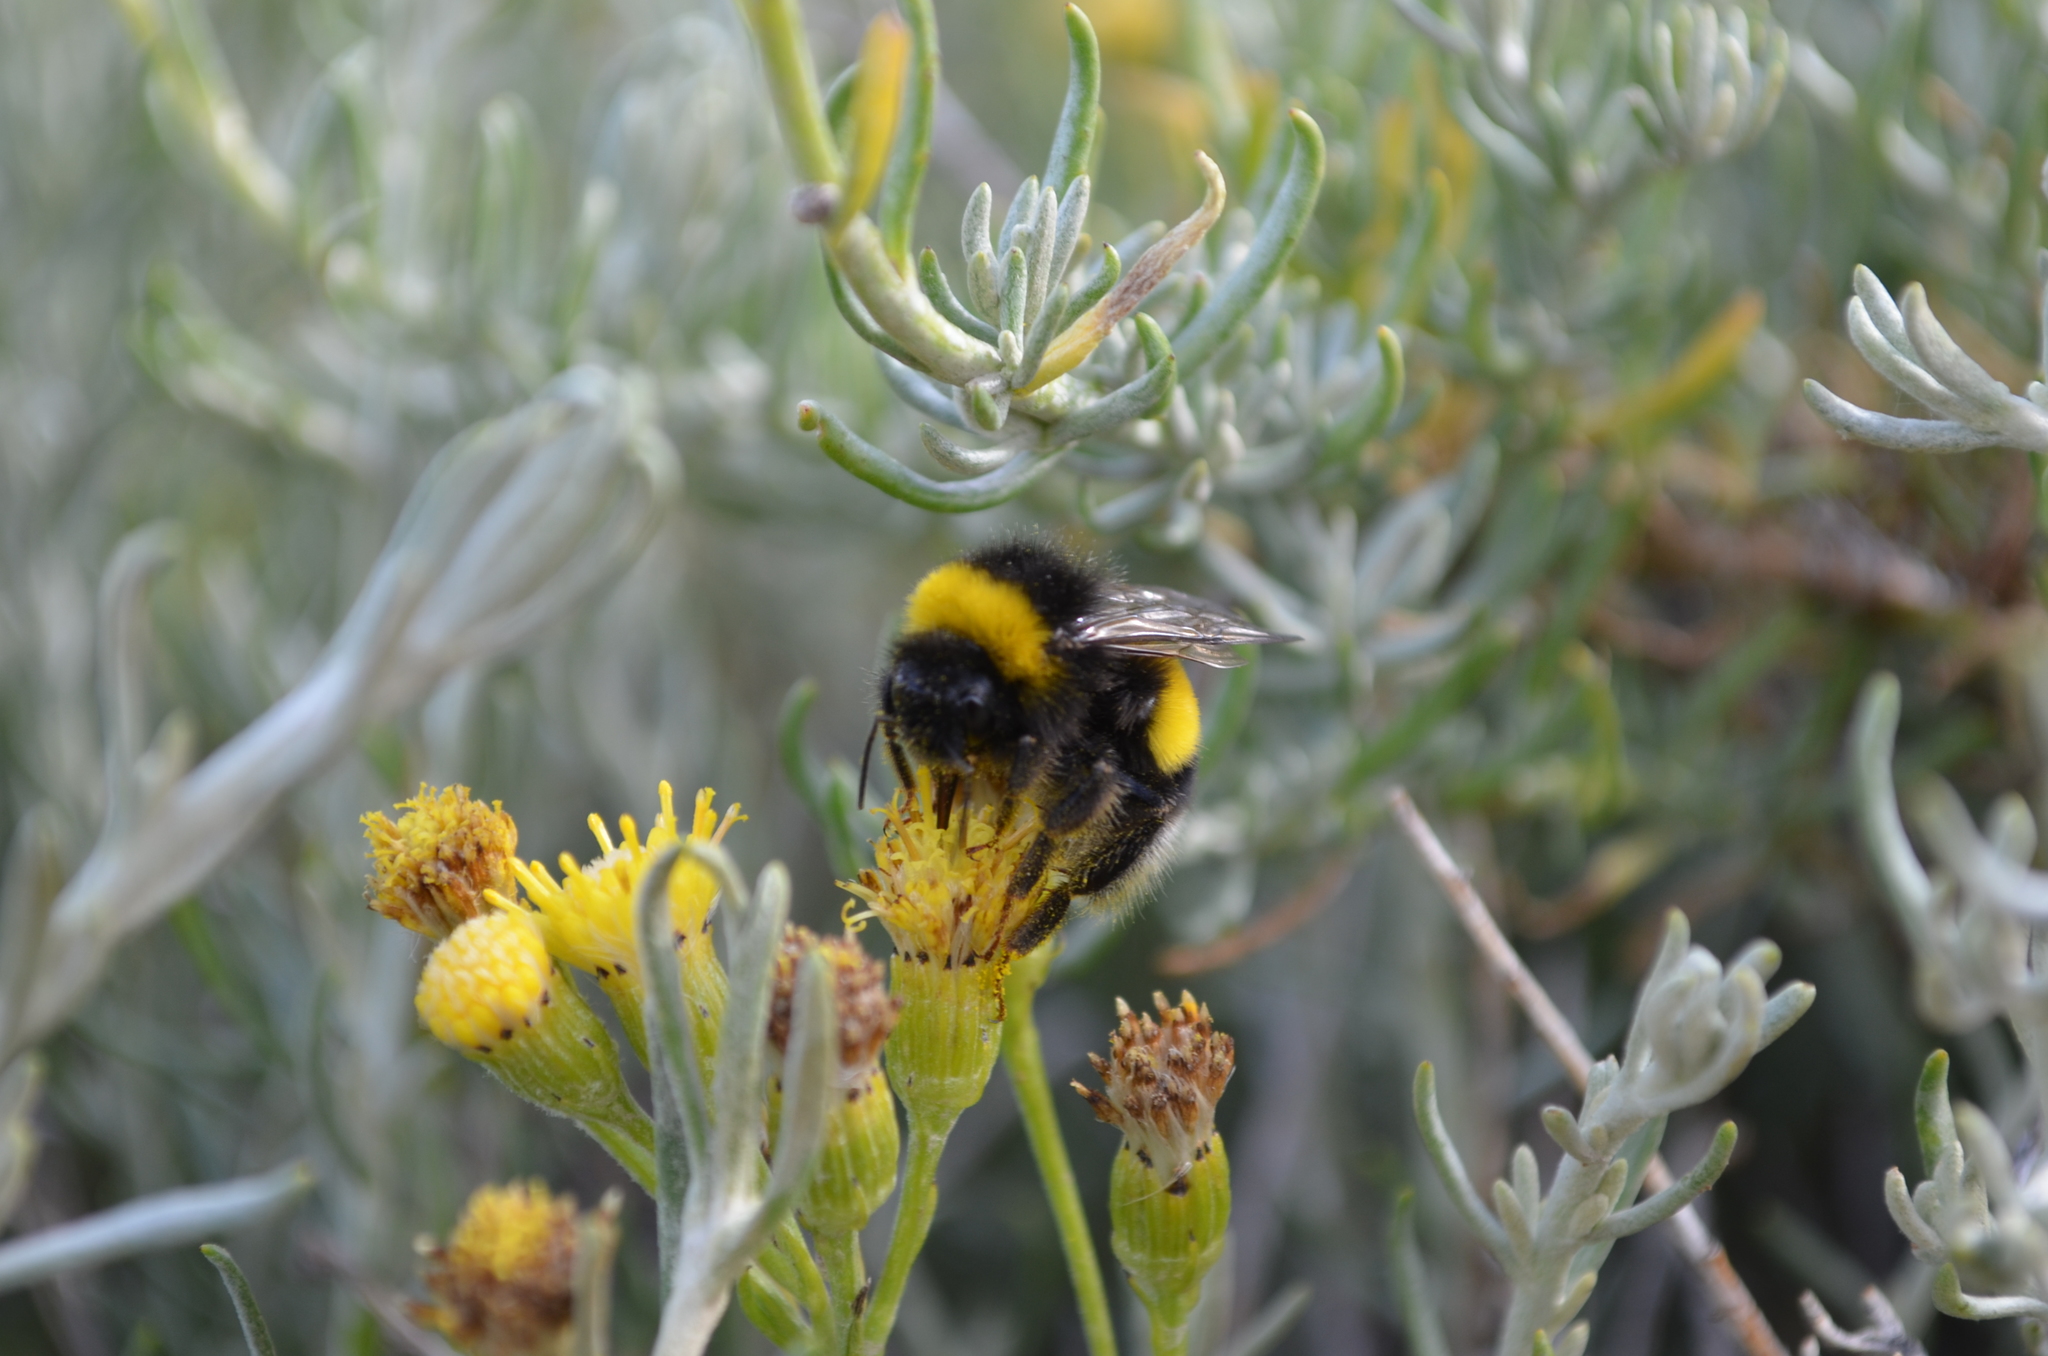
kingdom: Plantae
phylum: Tracheophyta
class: Magnoliopsida
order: Asterales
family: Asteraceae
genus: Senecio
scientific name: Senecio filaginoides
